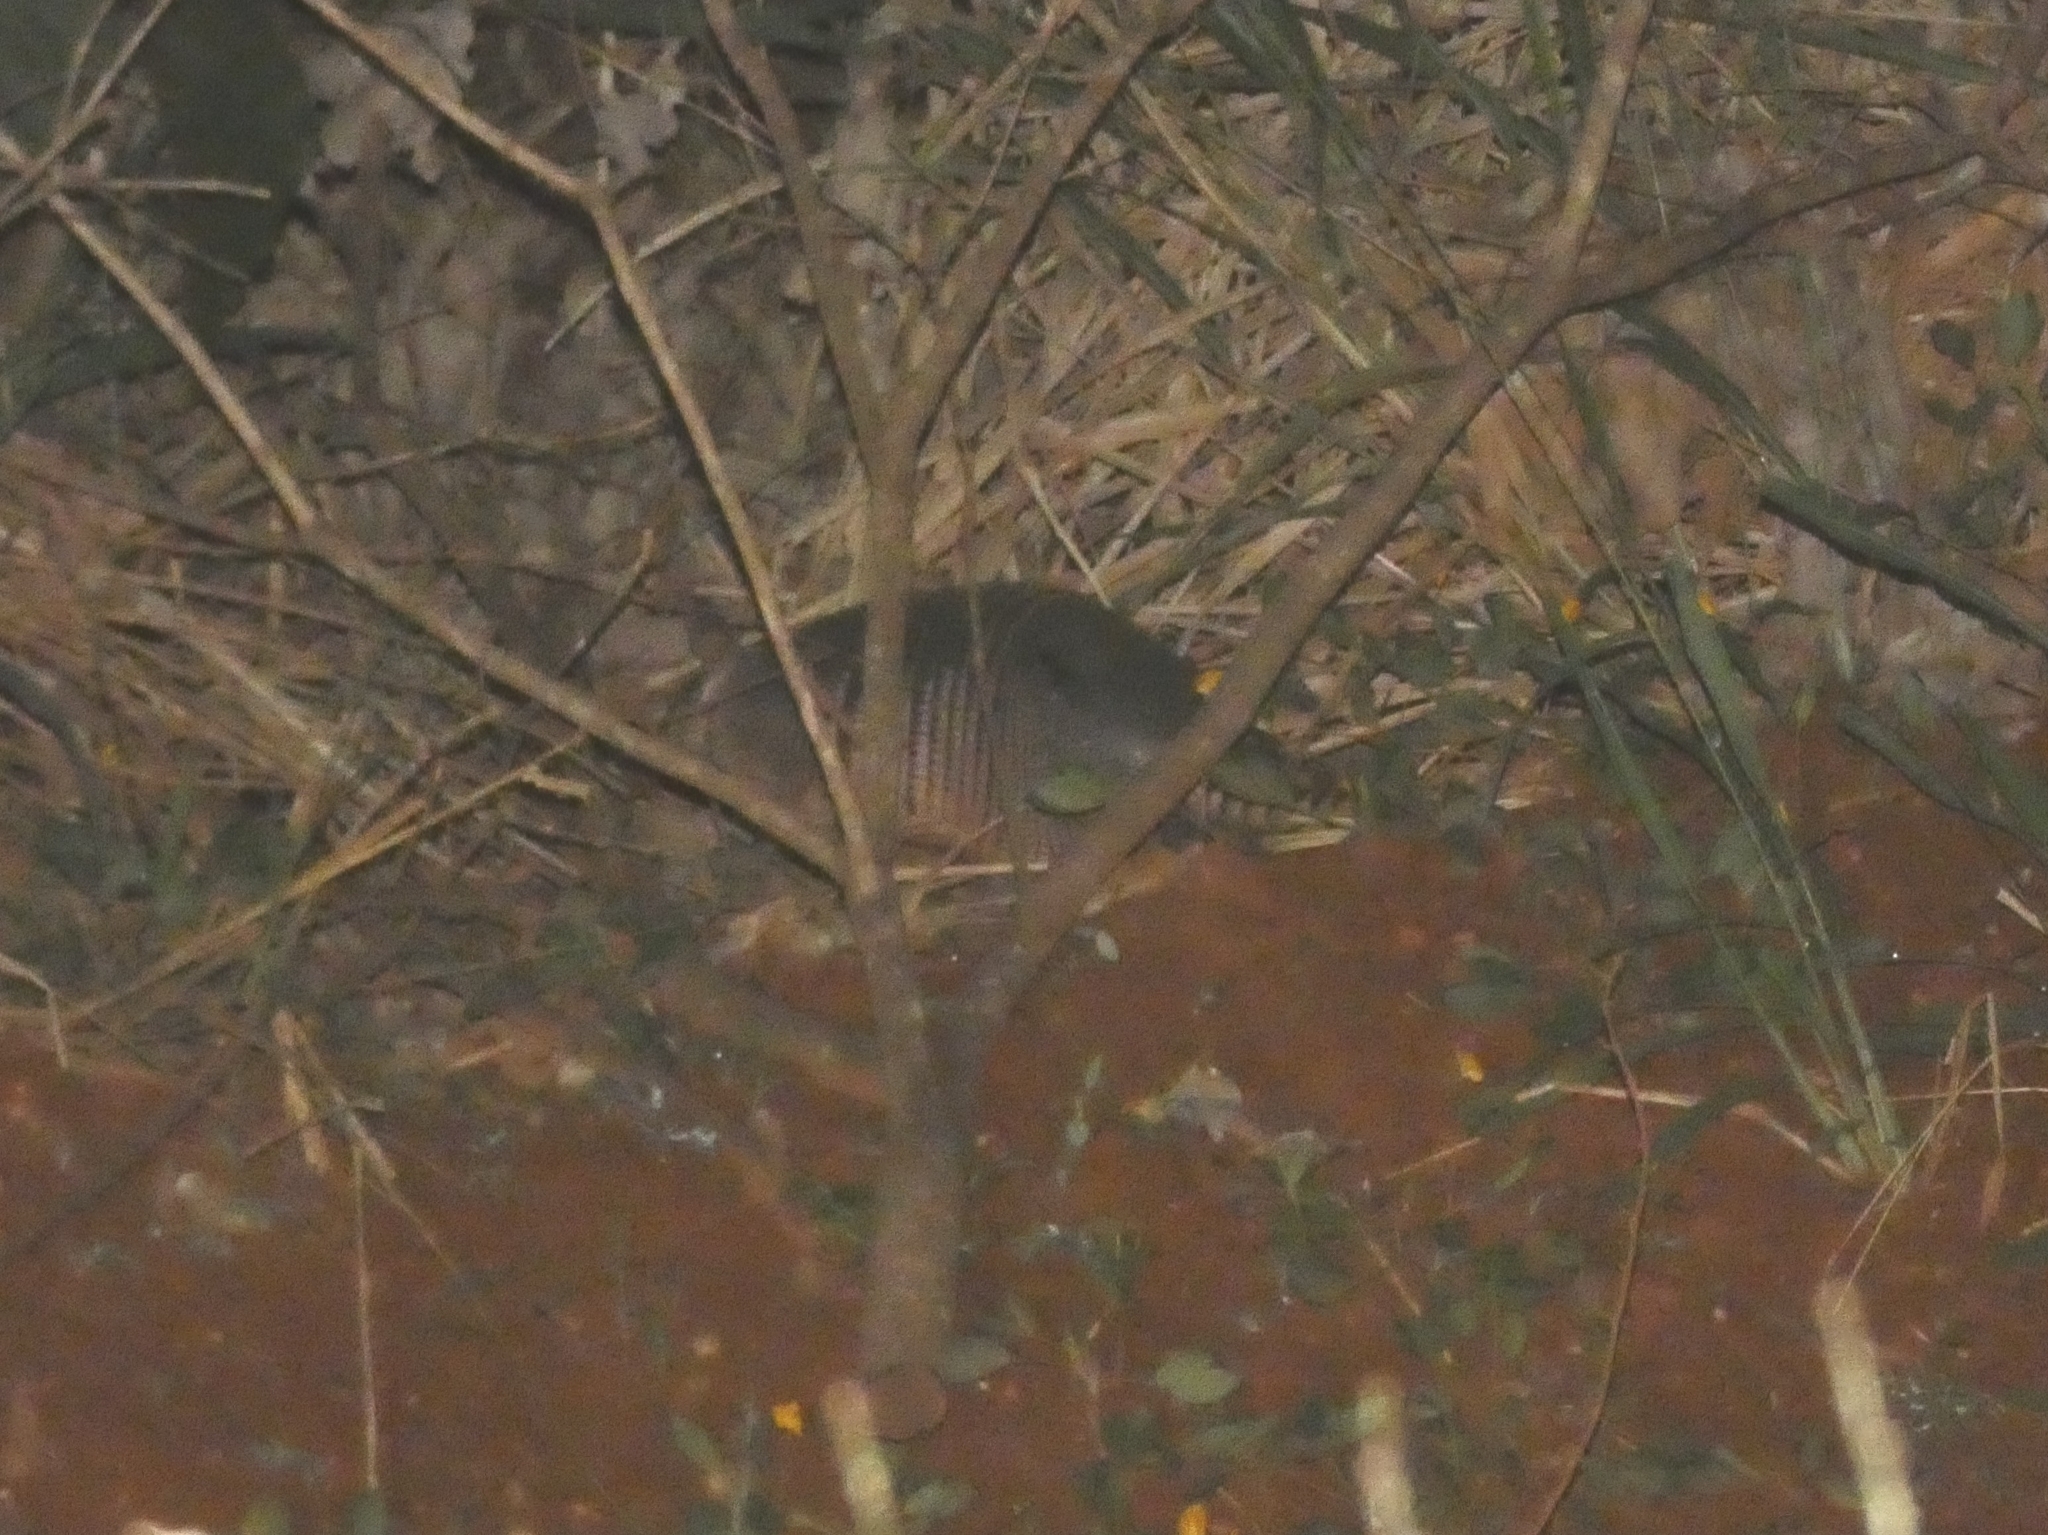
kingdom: Animalia
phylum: Chordata
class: Mammalia
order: Cingulata
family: Dasypodidae
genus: Dasypus
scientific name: Dasypus novemcinctus
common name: Nine-banded armadillo
